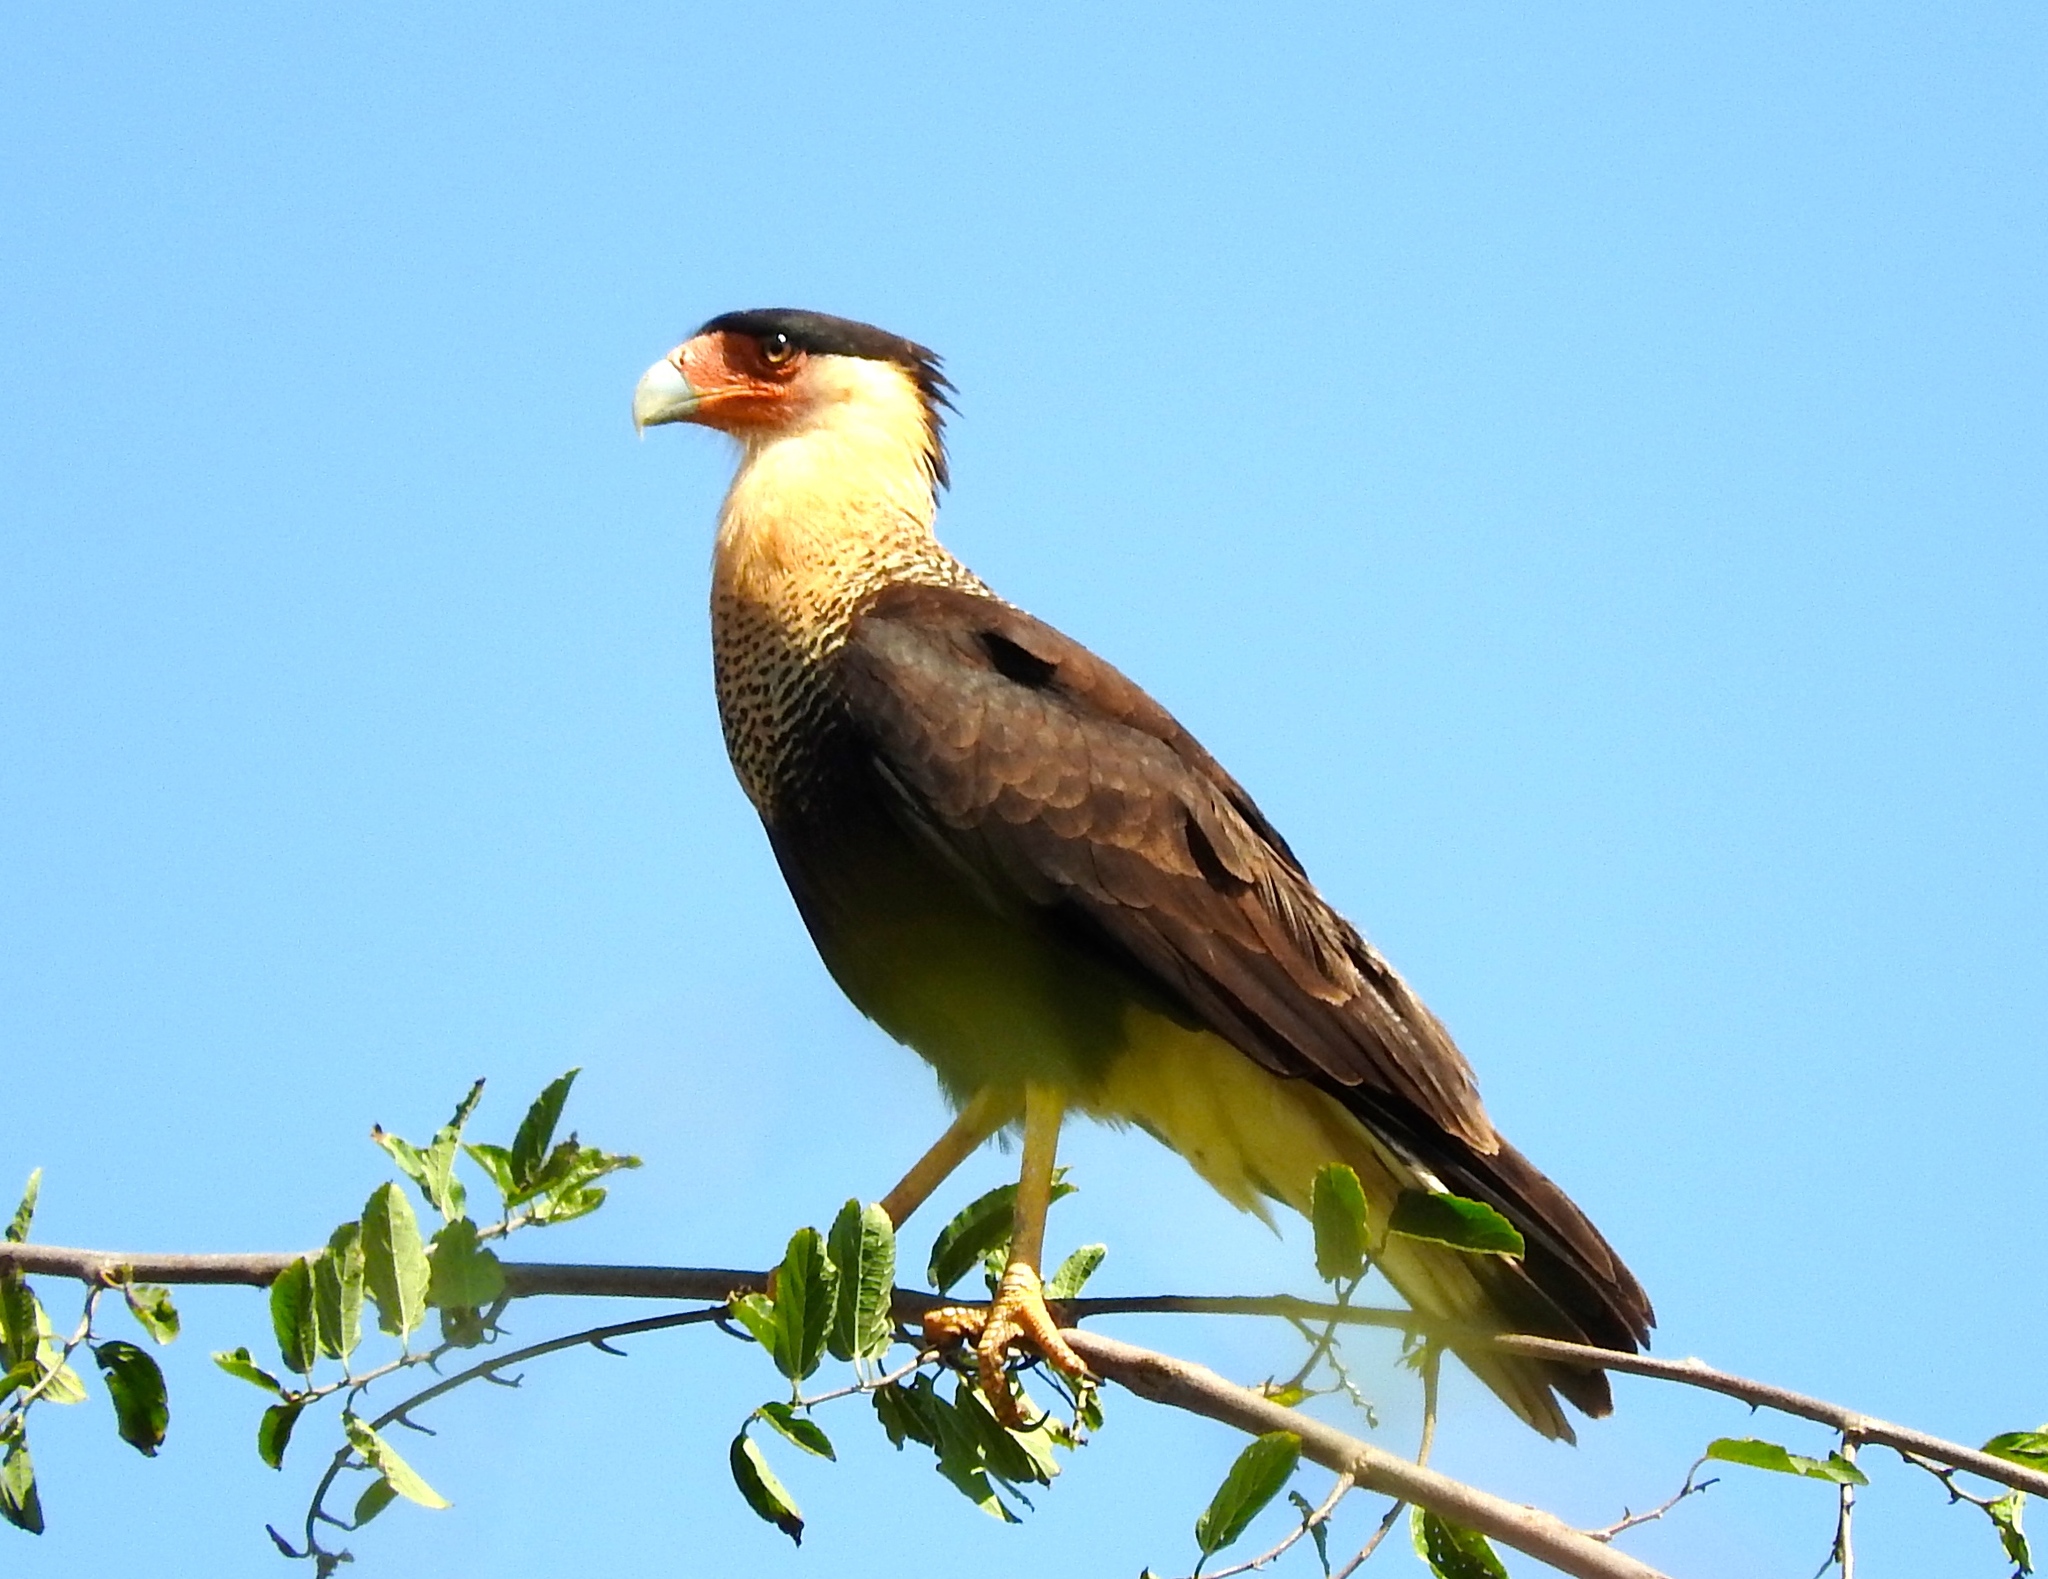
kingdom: Animalia
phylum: Chordata
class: Aves
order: Falconiformes
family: Falconidae
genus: Caracara
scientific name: Caracara plancus
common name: Southern caracara
